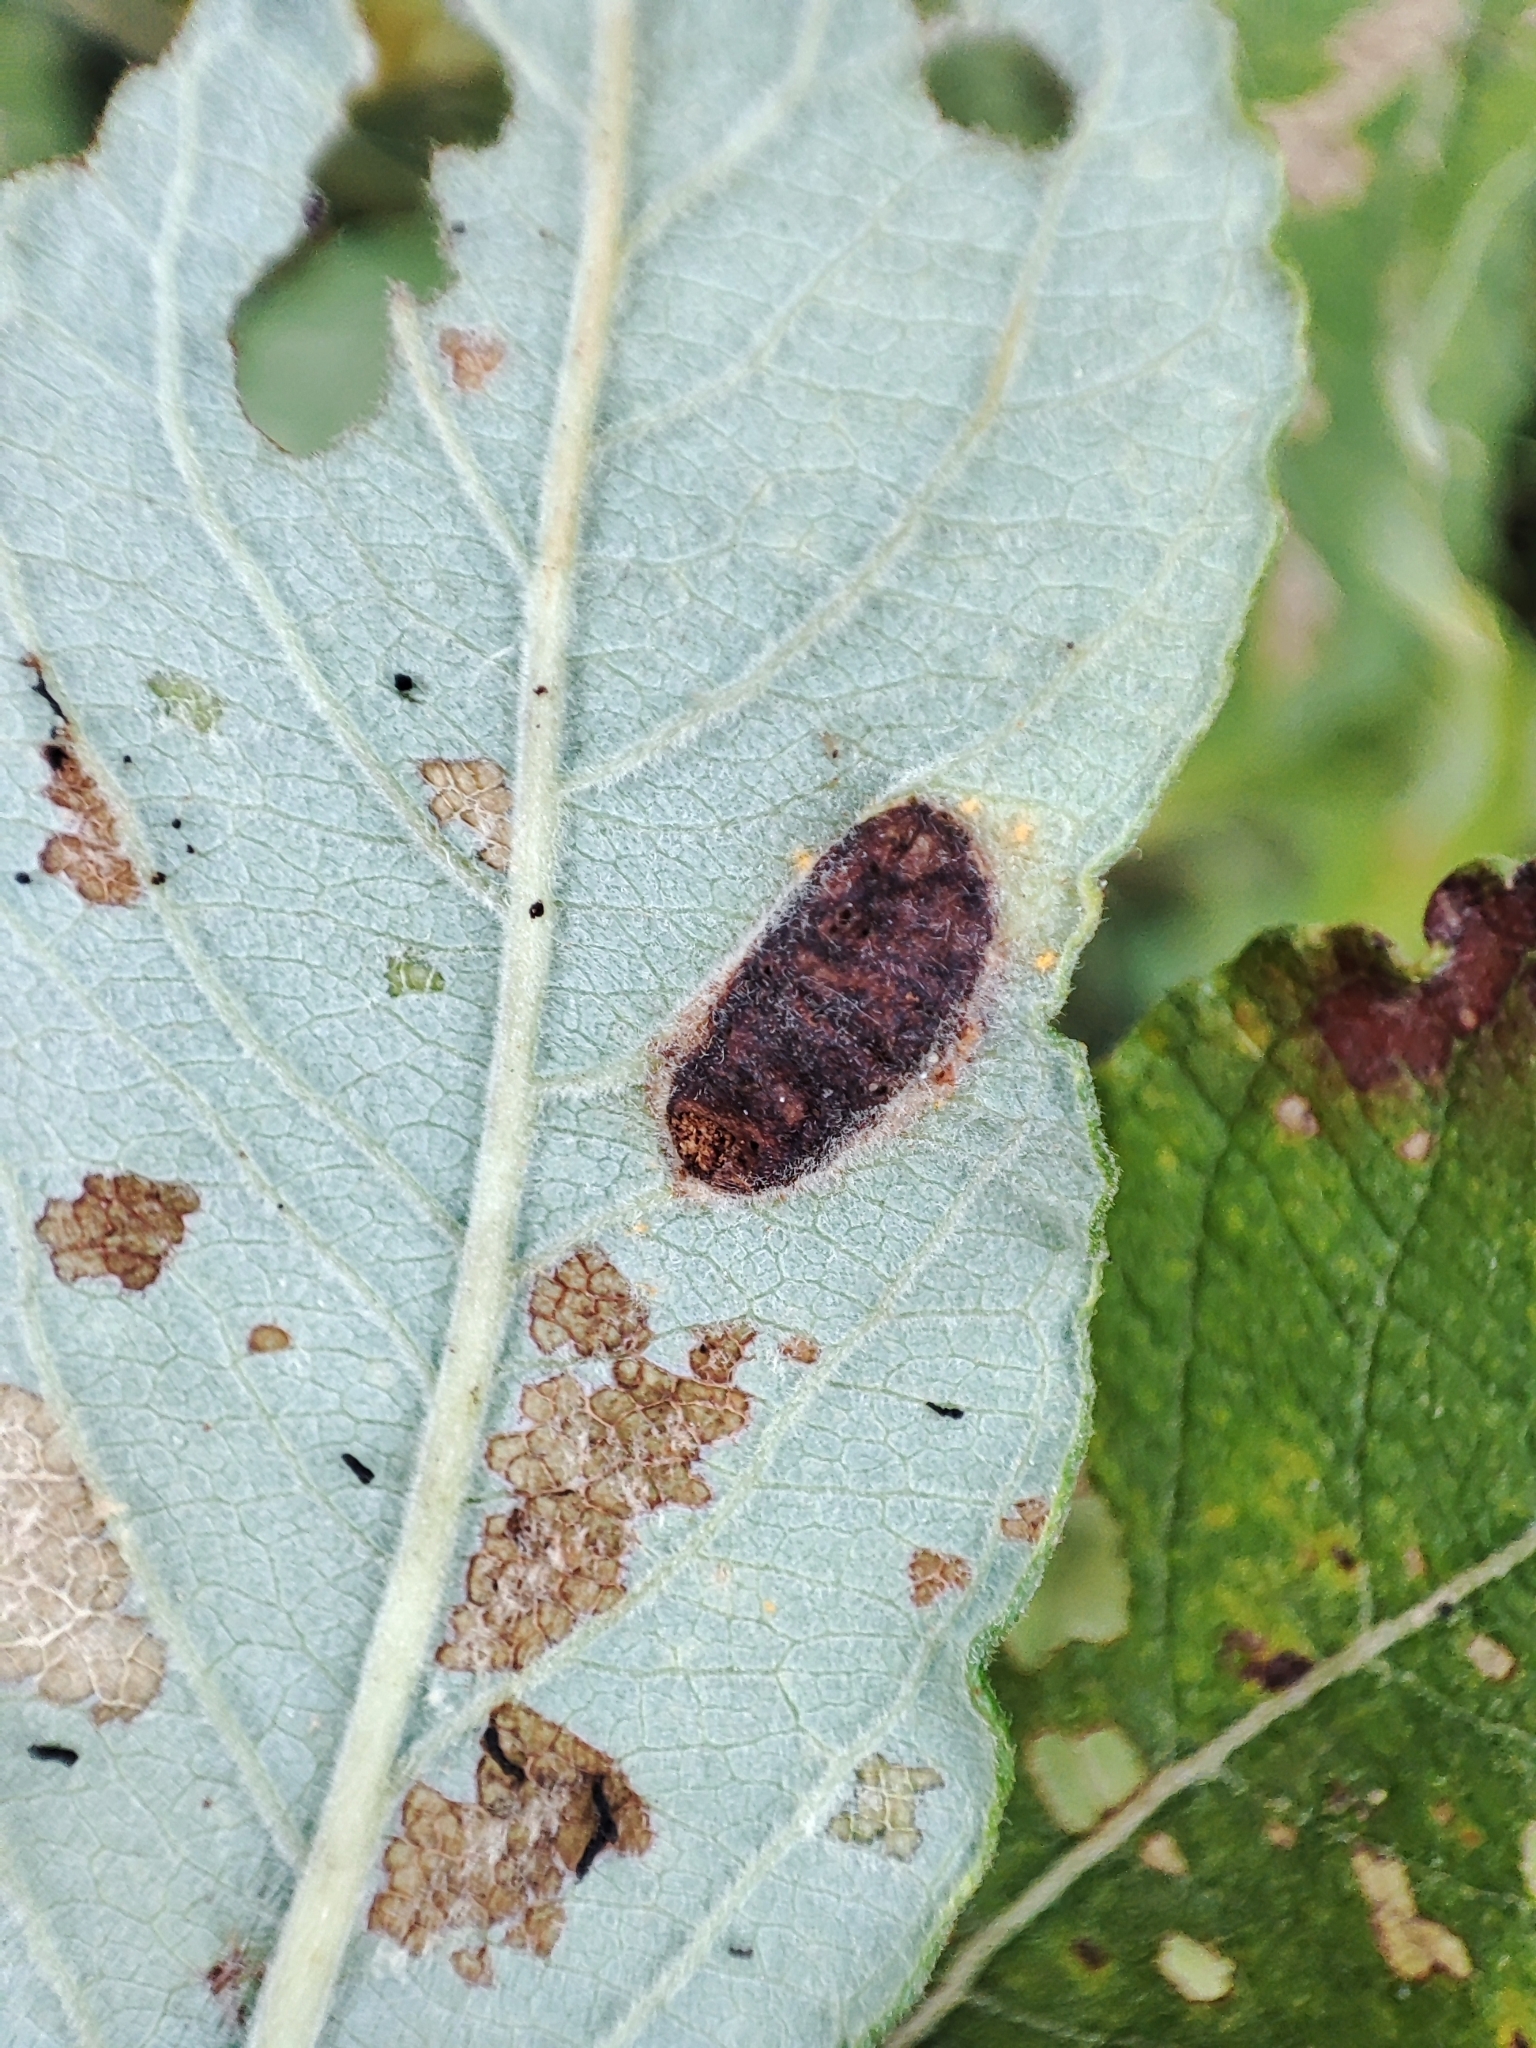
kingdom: Plantae
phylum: Tracheophyta
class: Magnoliopsida
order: Malpighiales
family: Salicaceae
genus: Salix
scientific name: Salix cinerea
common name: Common sallow
